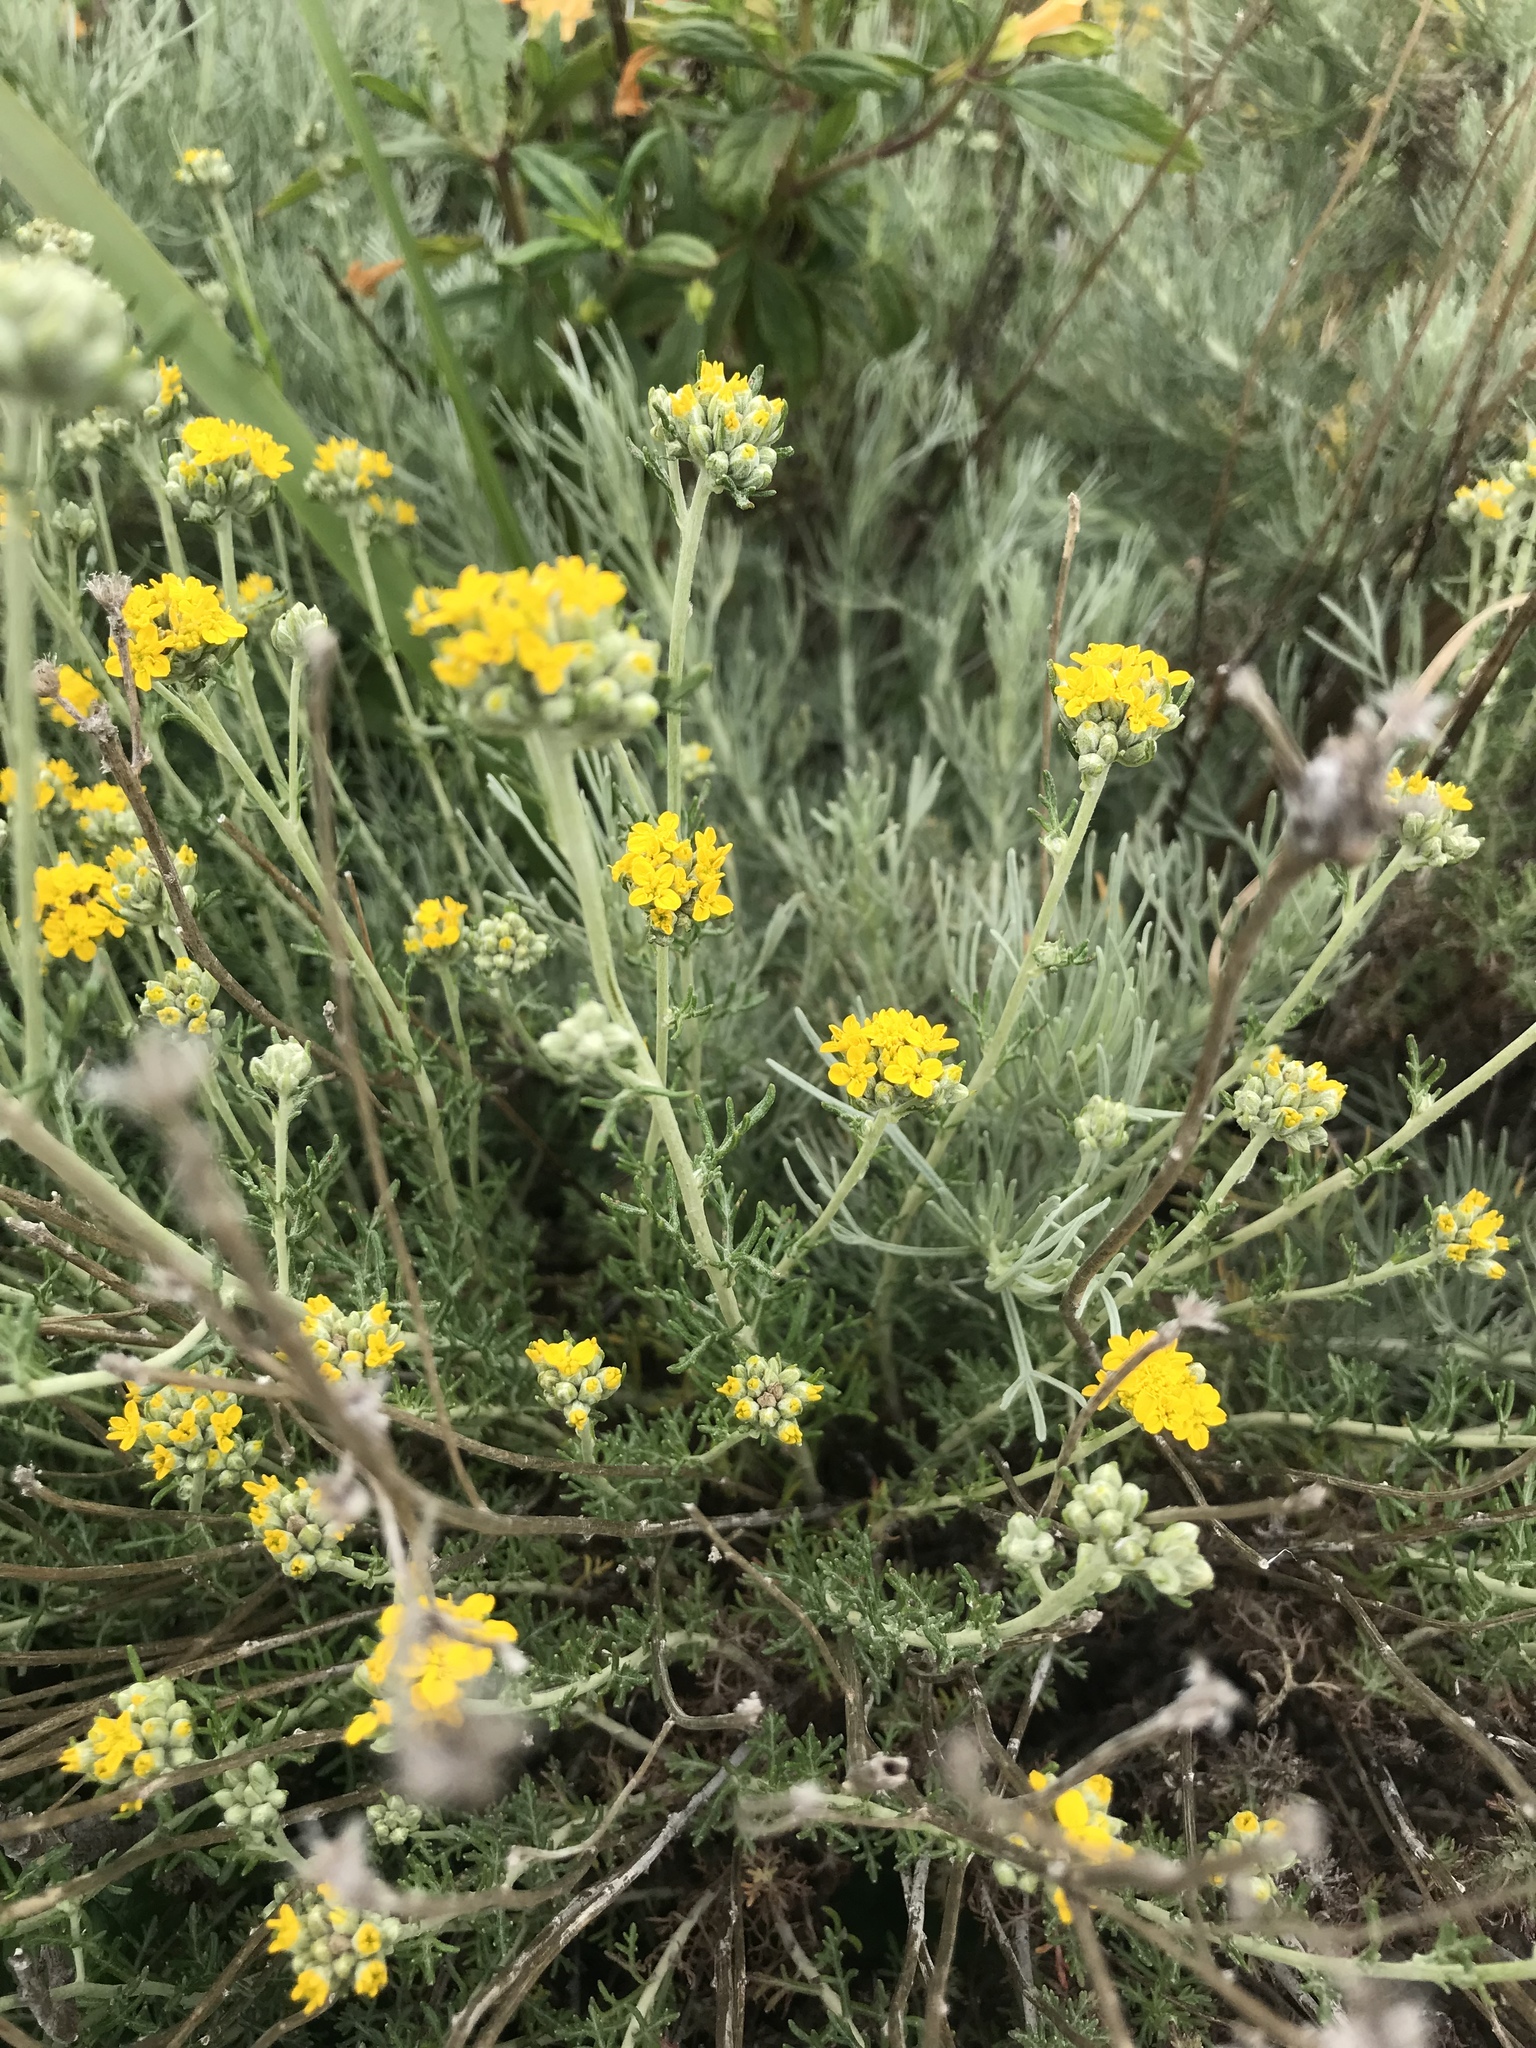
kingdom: Plantae
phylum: Tracheophyta
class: Magnoliopsida
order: Asterales
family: Asteraceae
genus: Eriophyllum
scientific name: Eriophyllum confertiflorum
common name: Golden-yarrow
